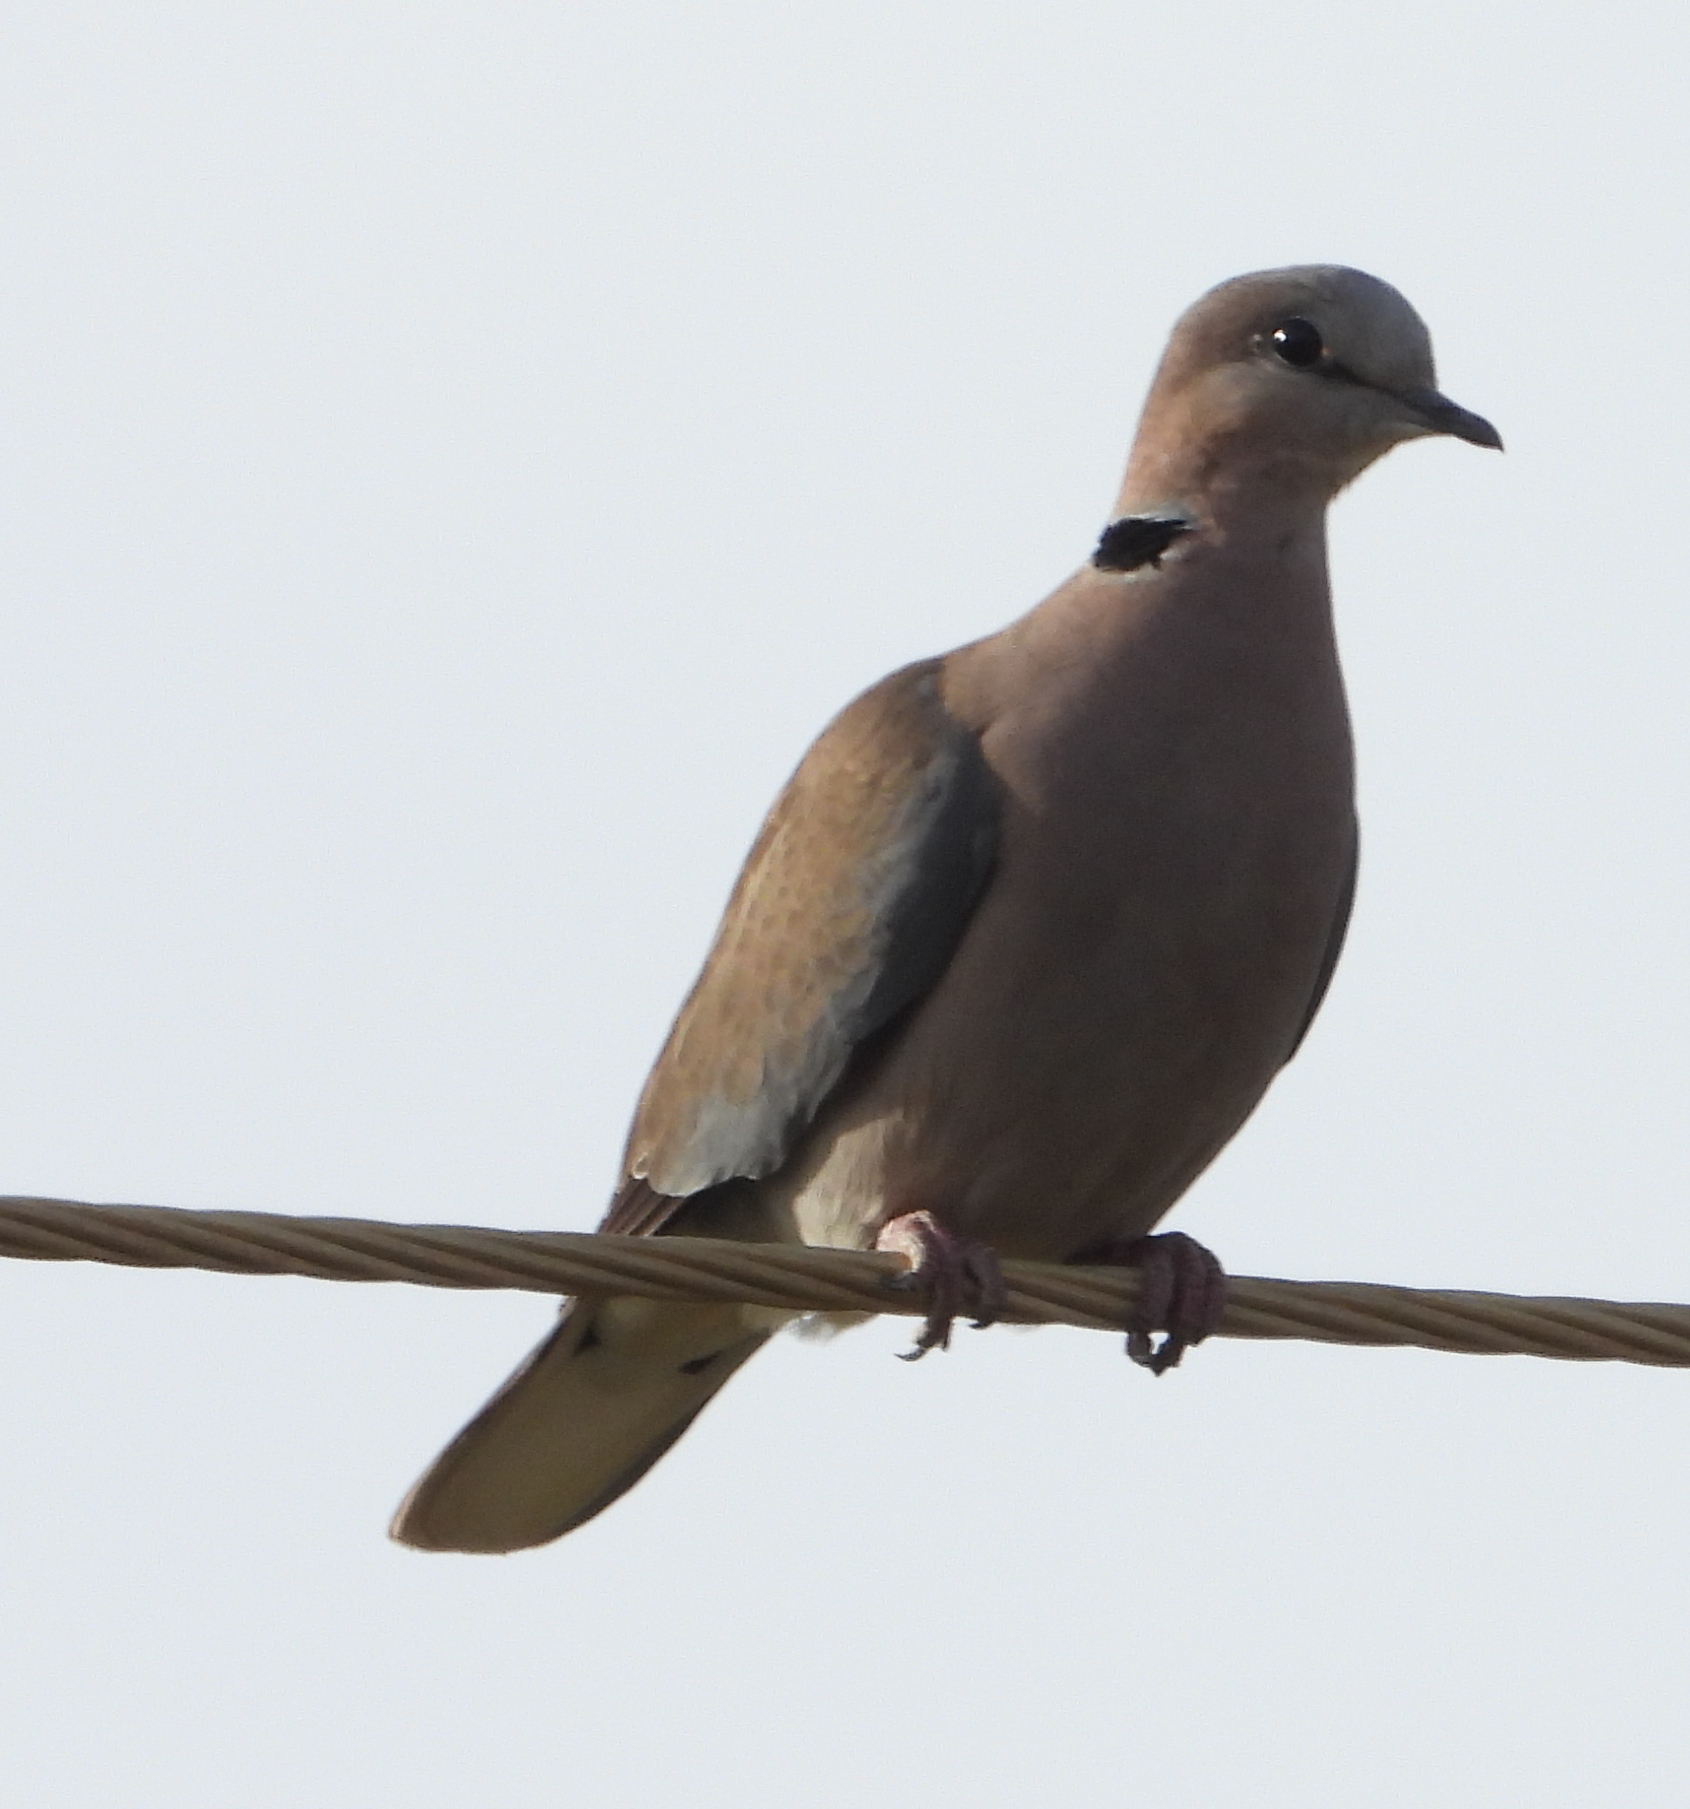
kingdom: Animalia
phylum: Chordata
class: Aves
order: Columbiformes
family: Columbidae
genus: Streptopelia
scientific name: Streptopelia capicola
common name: Ring-necked dove
